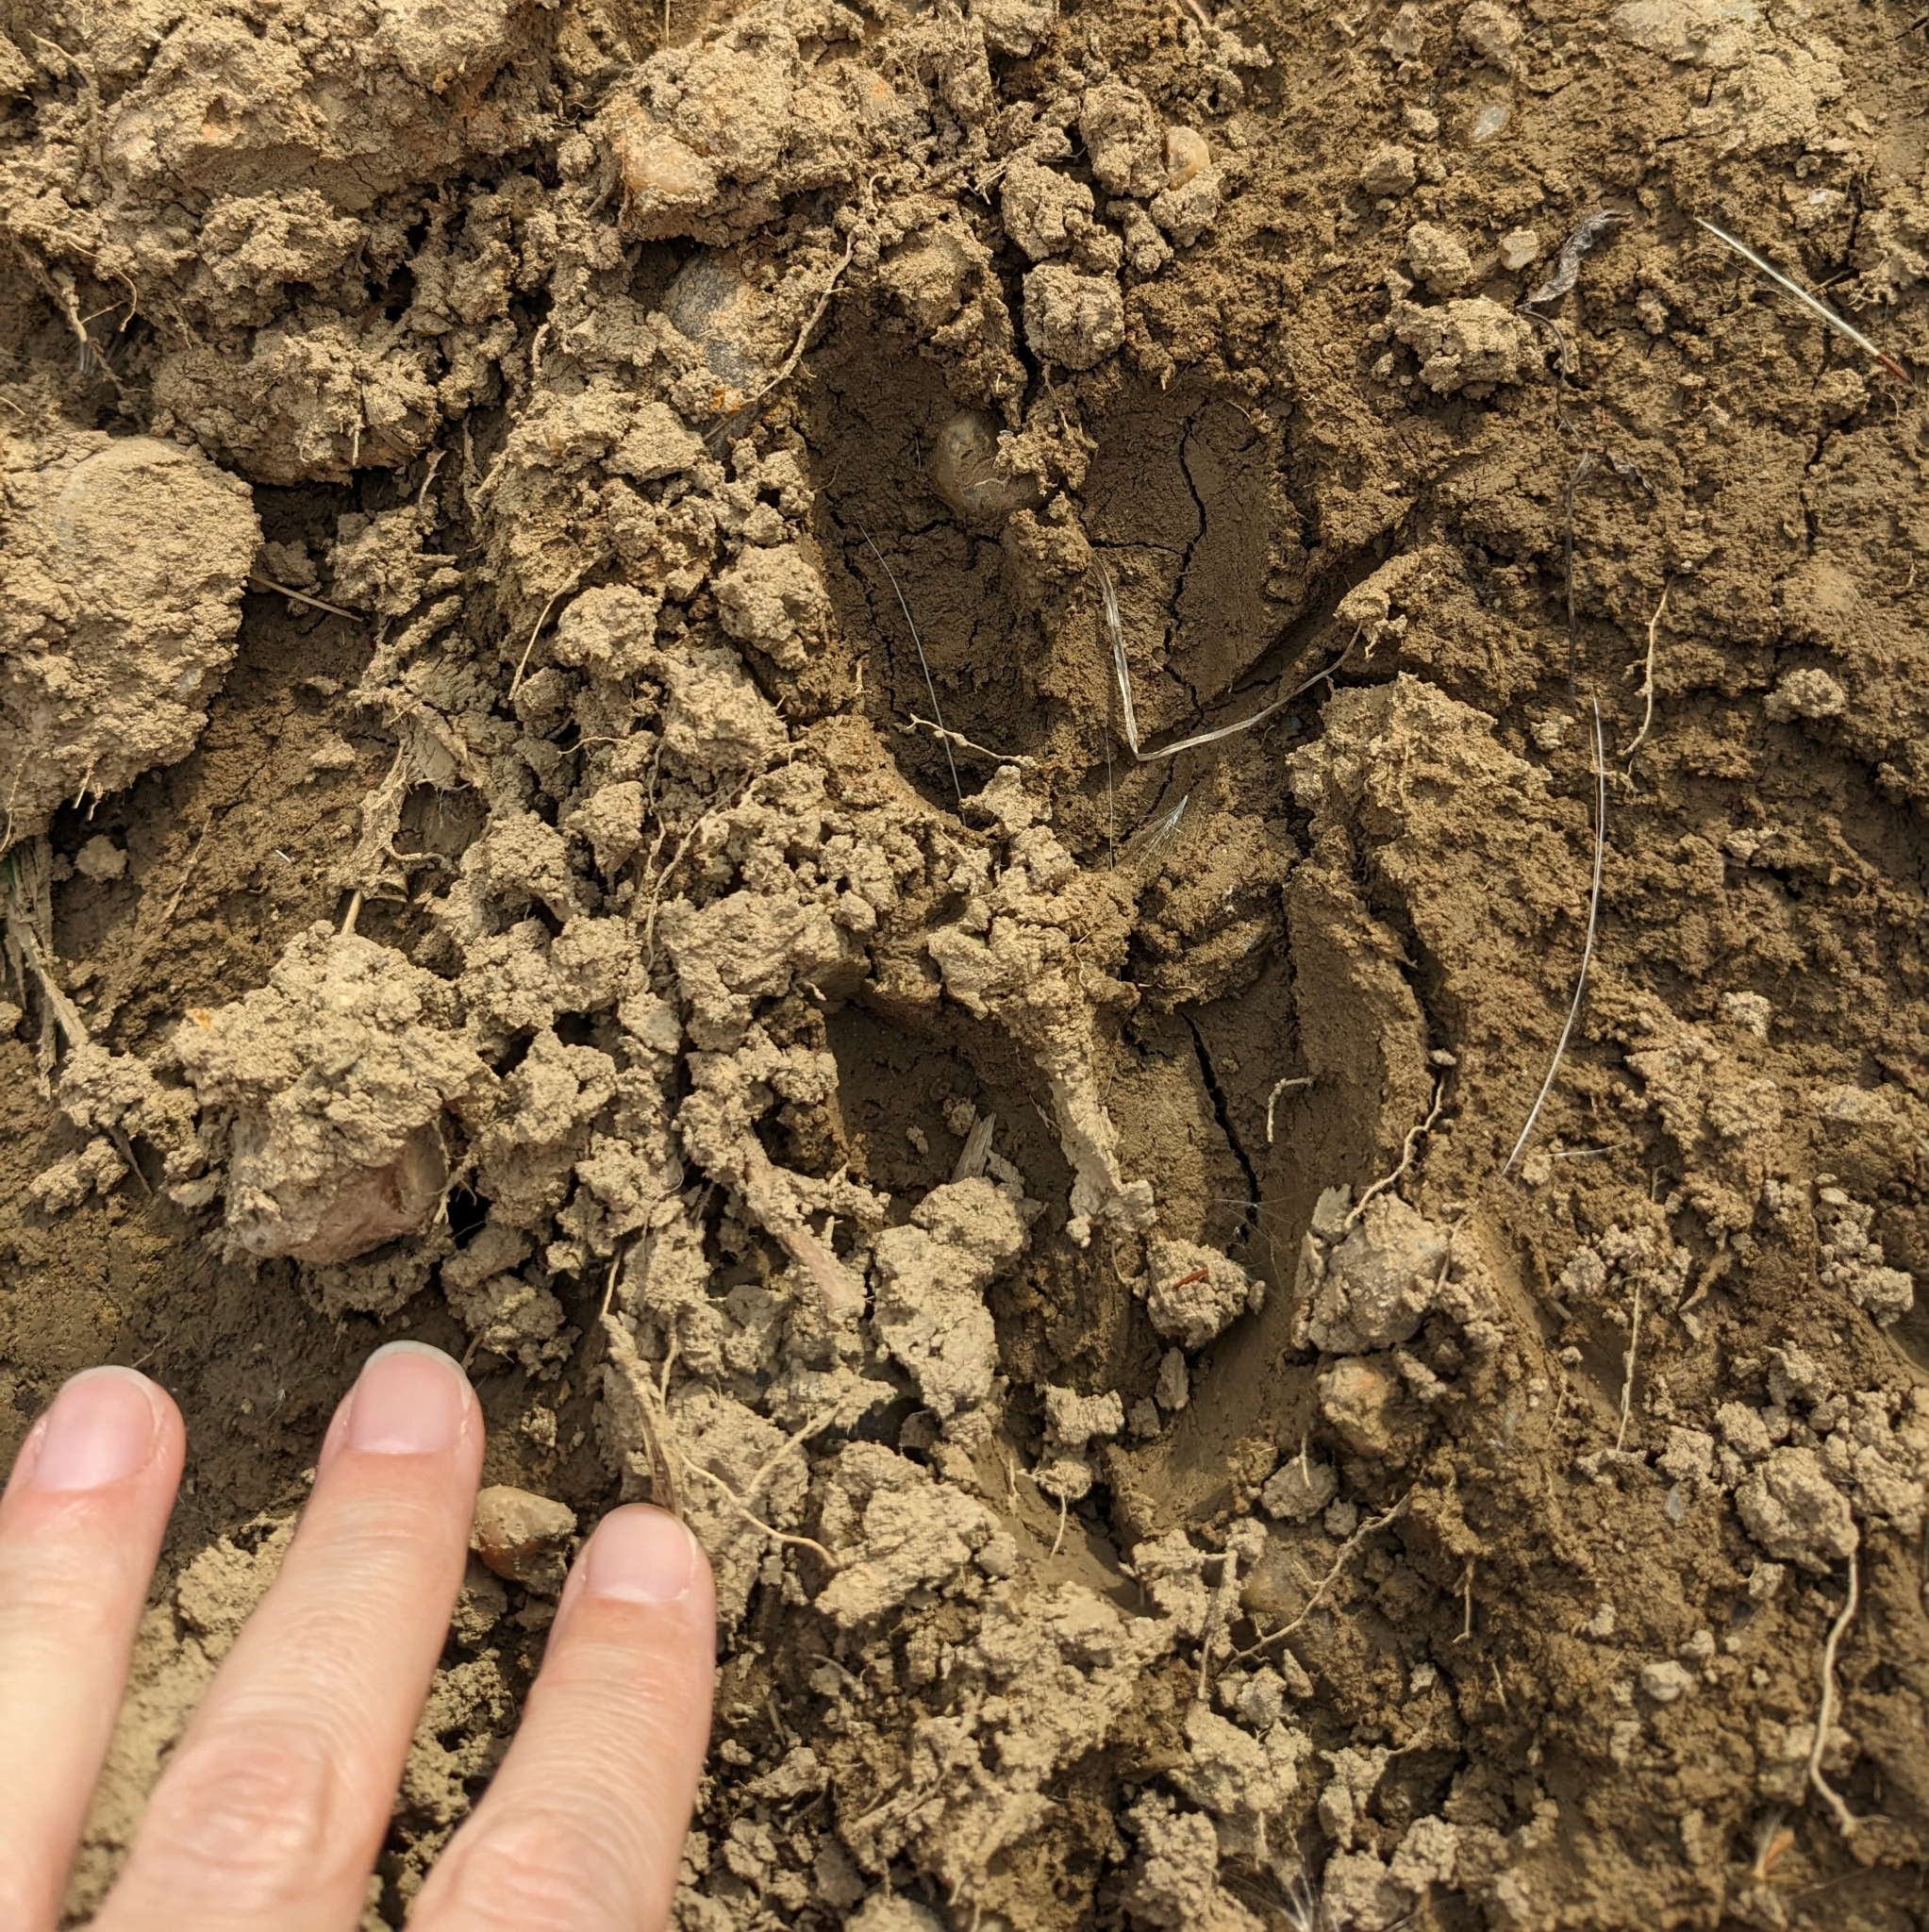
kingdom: Animalia
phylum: Chordata
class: Mammalia
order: Artiodactyla
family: Cervidae
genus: Odocoileus
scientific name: Odocoileus virginianus
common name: White-tailed deer
